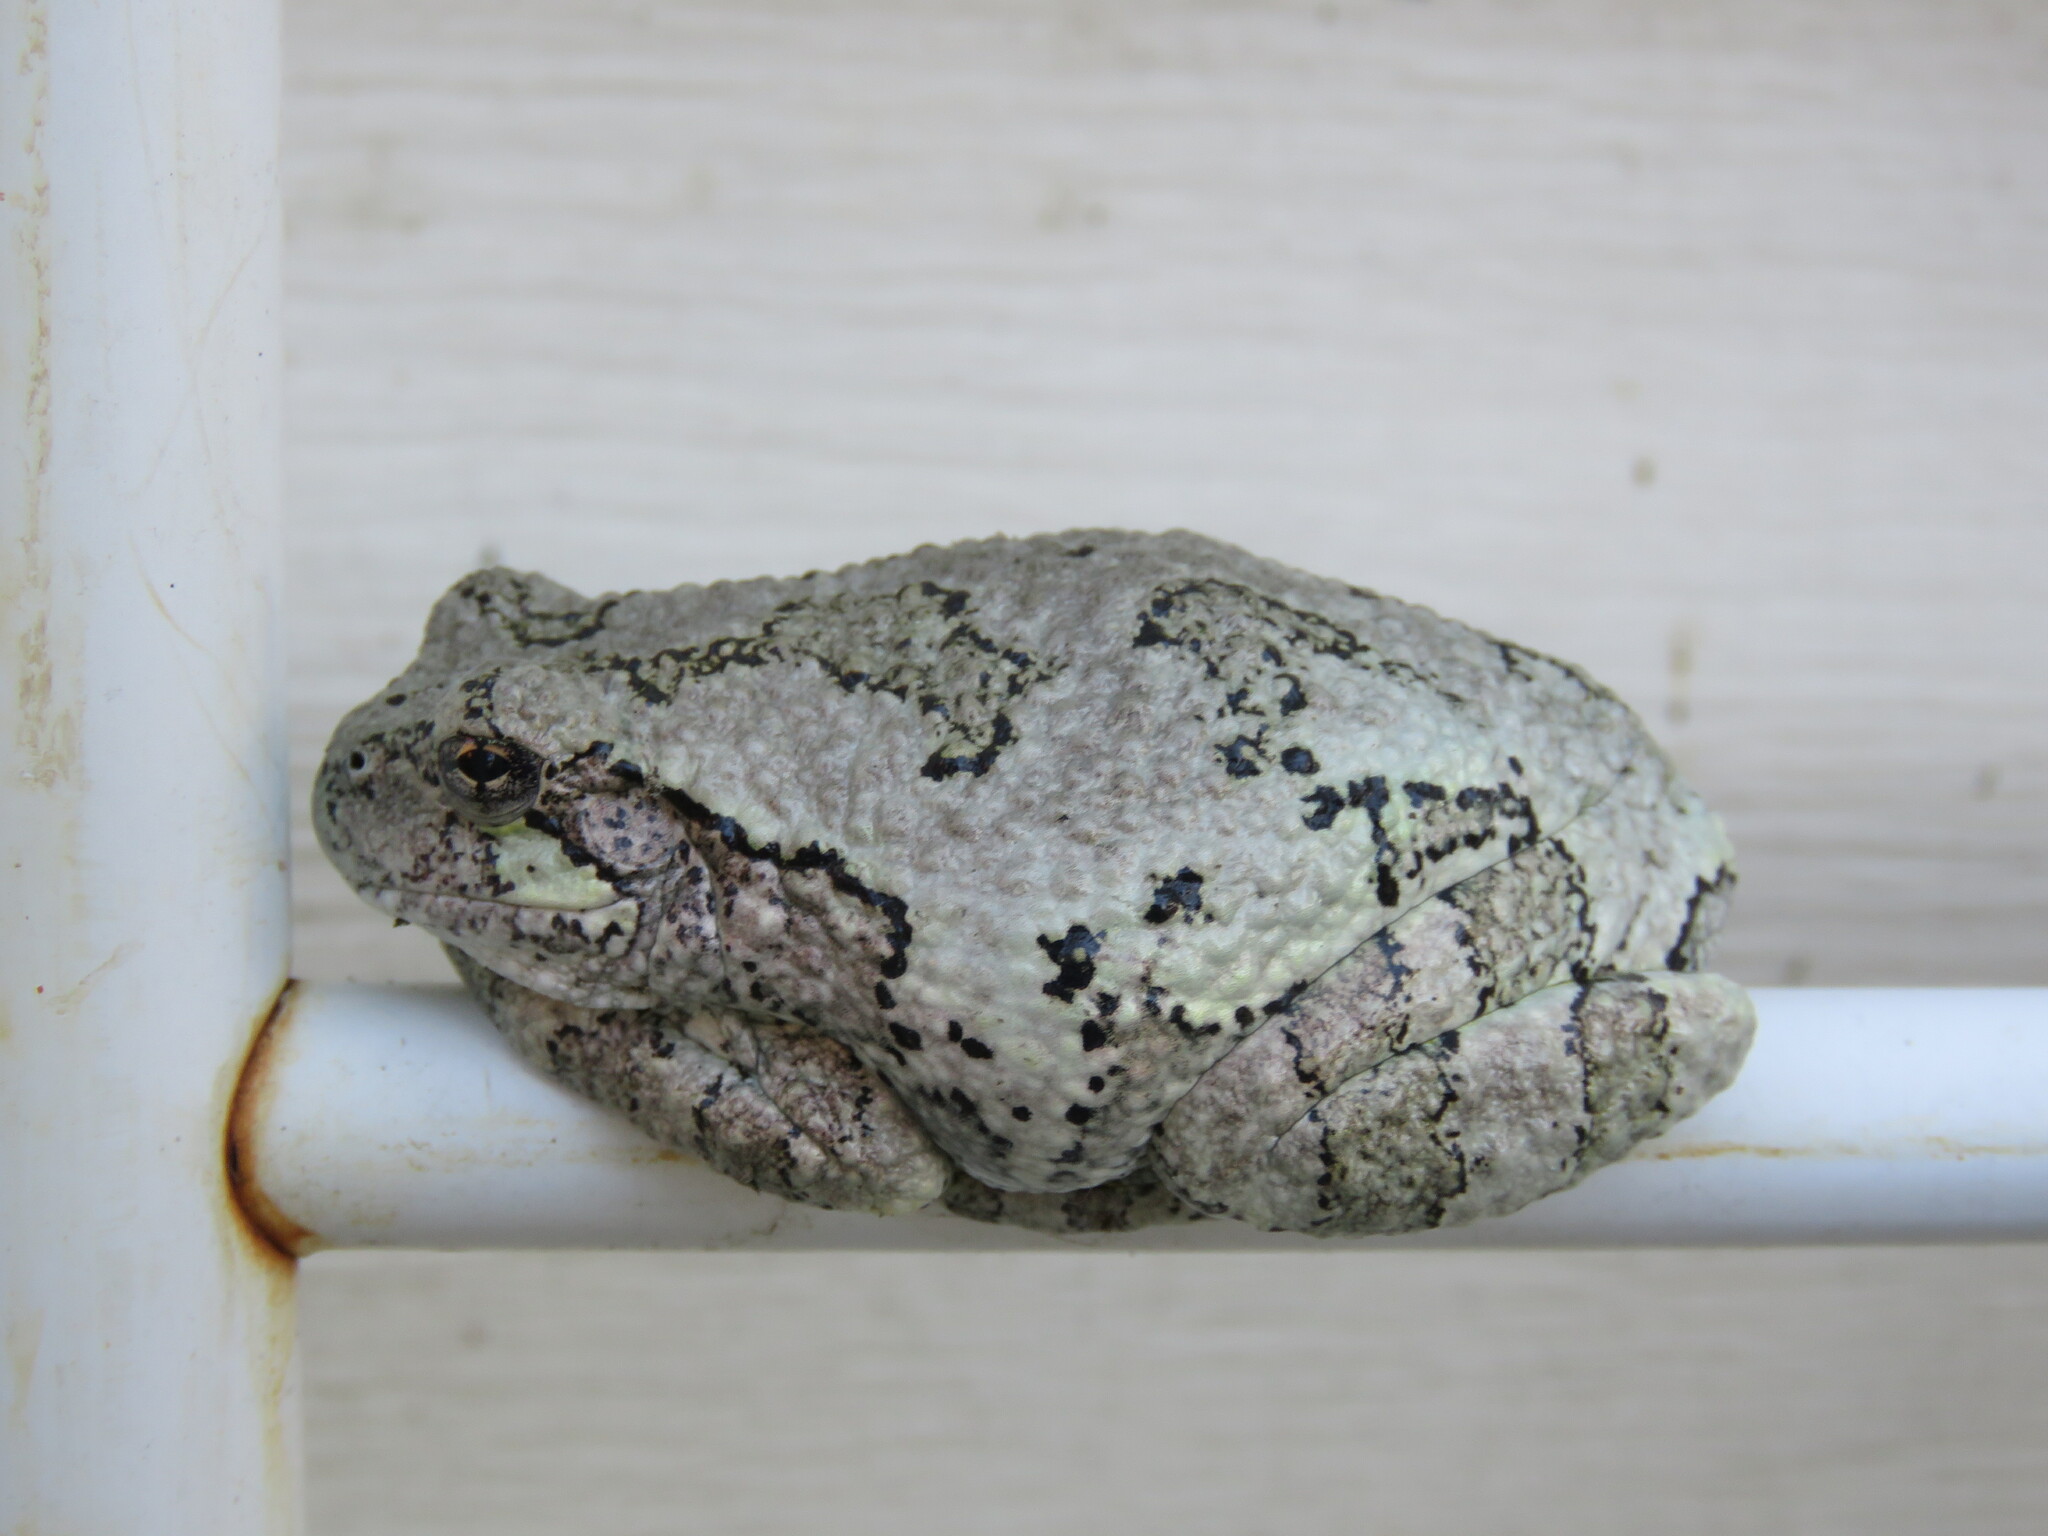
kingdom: Animalia
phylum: Chordata
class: Amphibia
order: Anura
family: Hylidae
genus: Dryophytes
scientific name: Dryophytes versicolor
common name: Gray treefrog
